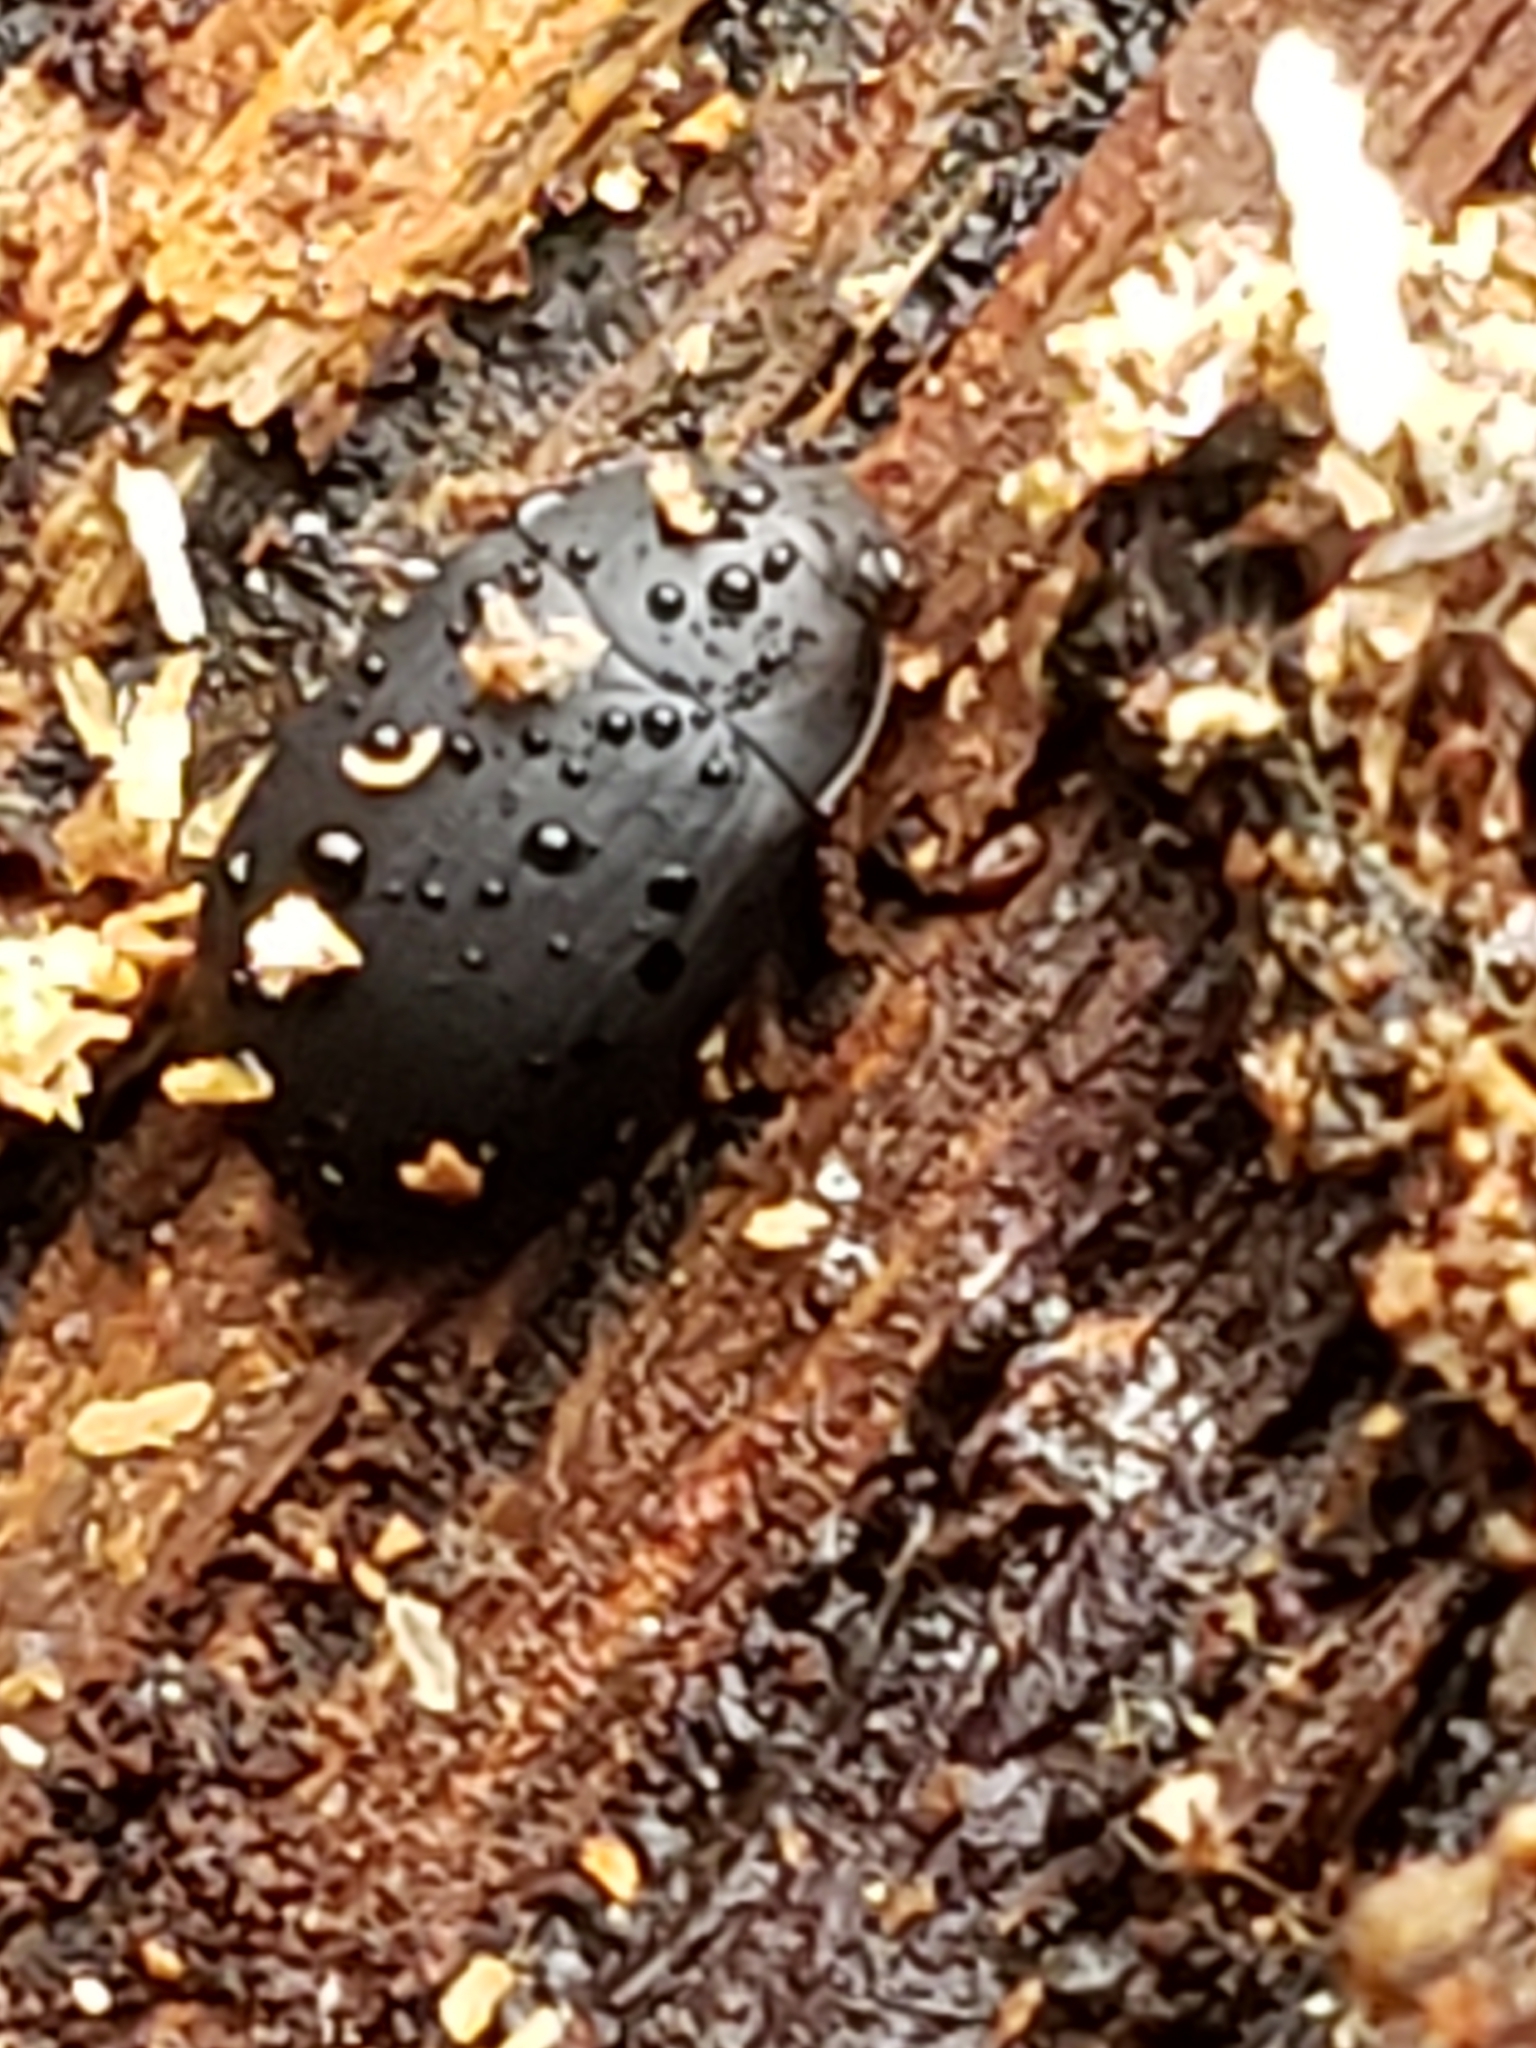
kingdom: Animalia
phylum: Arthropoda
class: Insecta
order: Coleoptera
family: Tenebrionidae
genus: Platydema
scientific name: Platydema ruficornis
